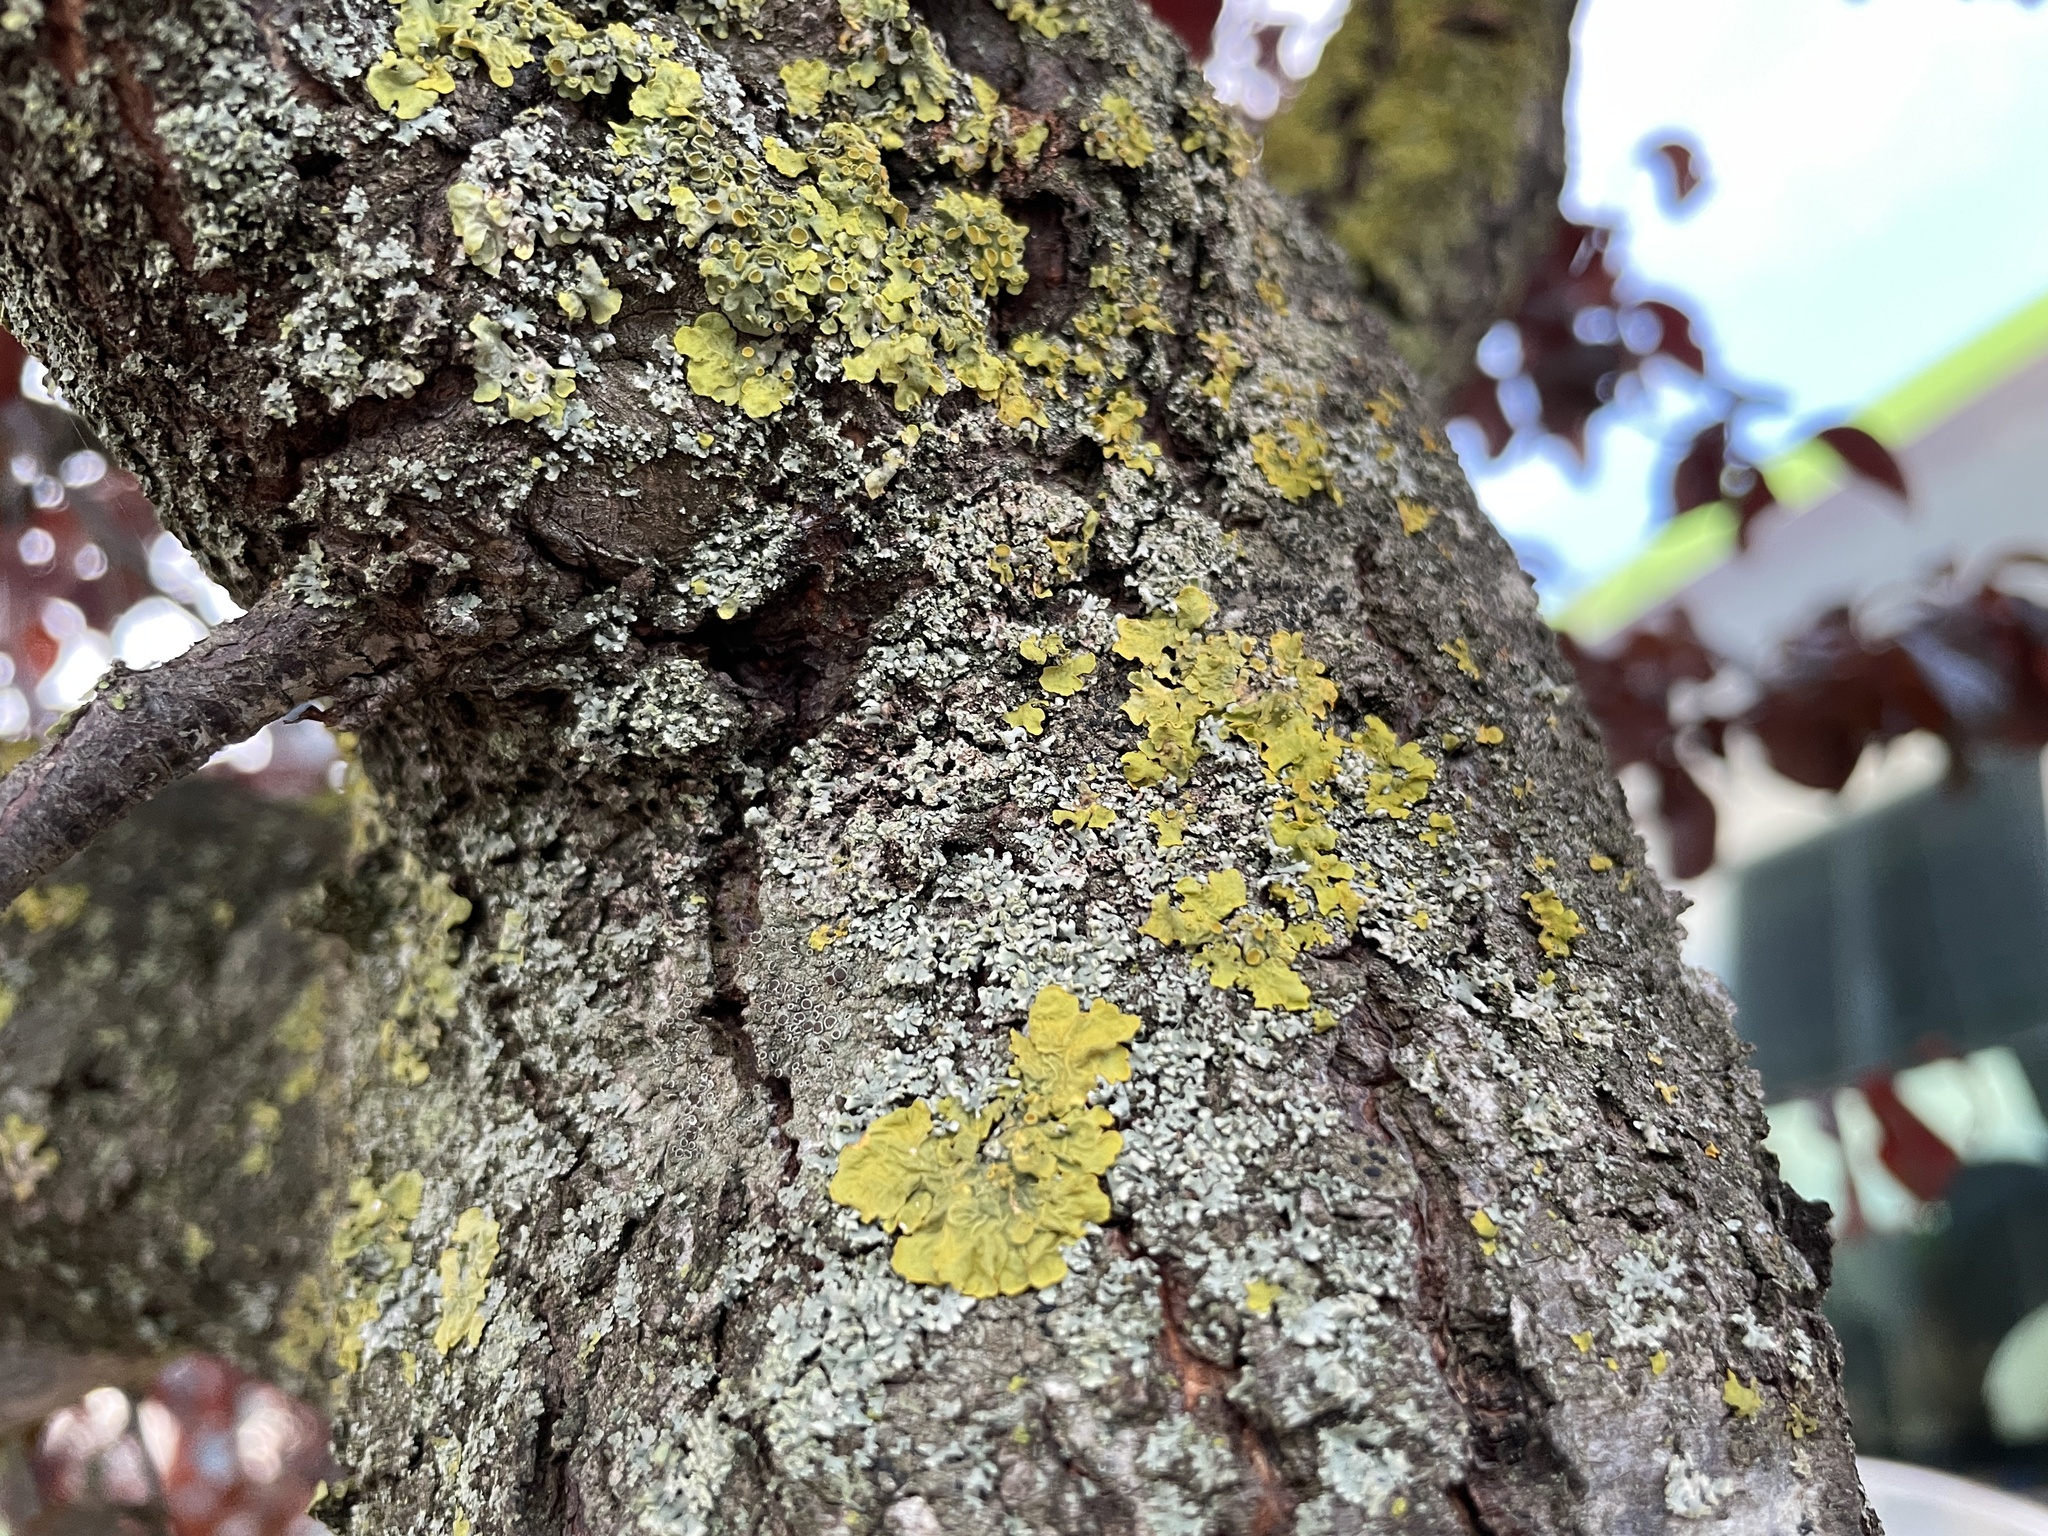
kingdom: Fungi
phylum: Ascomycota
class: Lecanoromycetes
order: Teloschistales
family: Teloschistaceae
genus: Xanthoria
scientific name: Xanthoria parietina
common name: Common orange lichen
